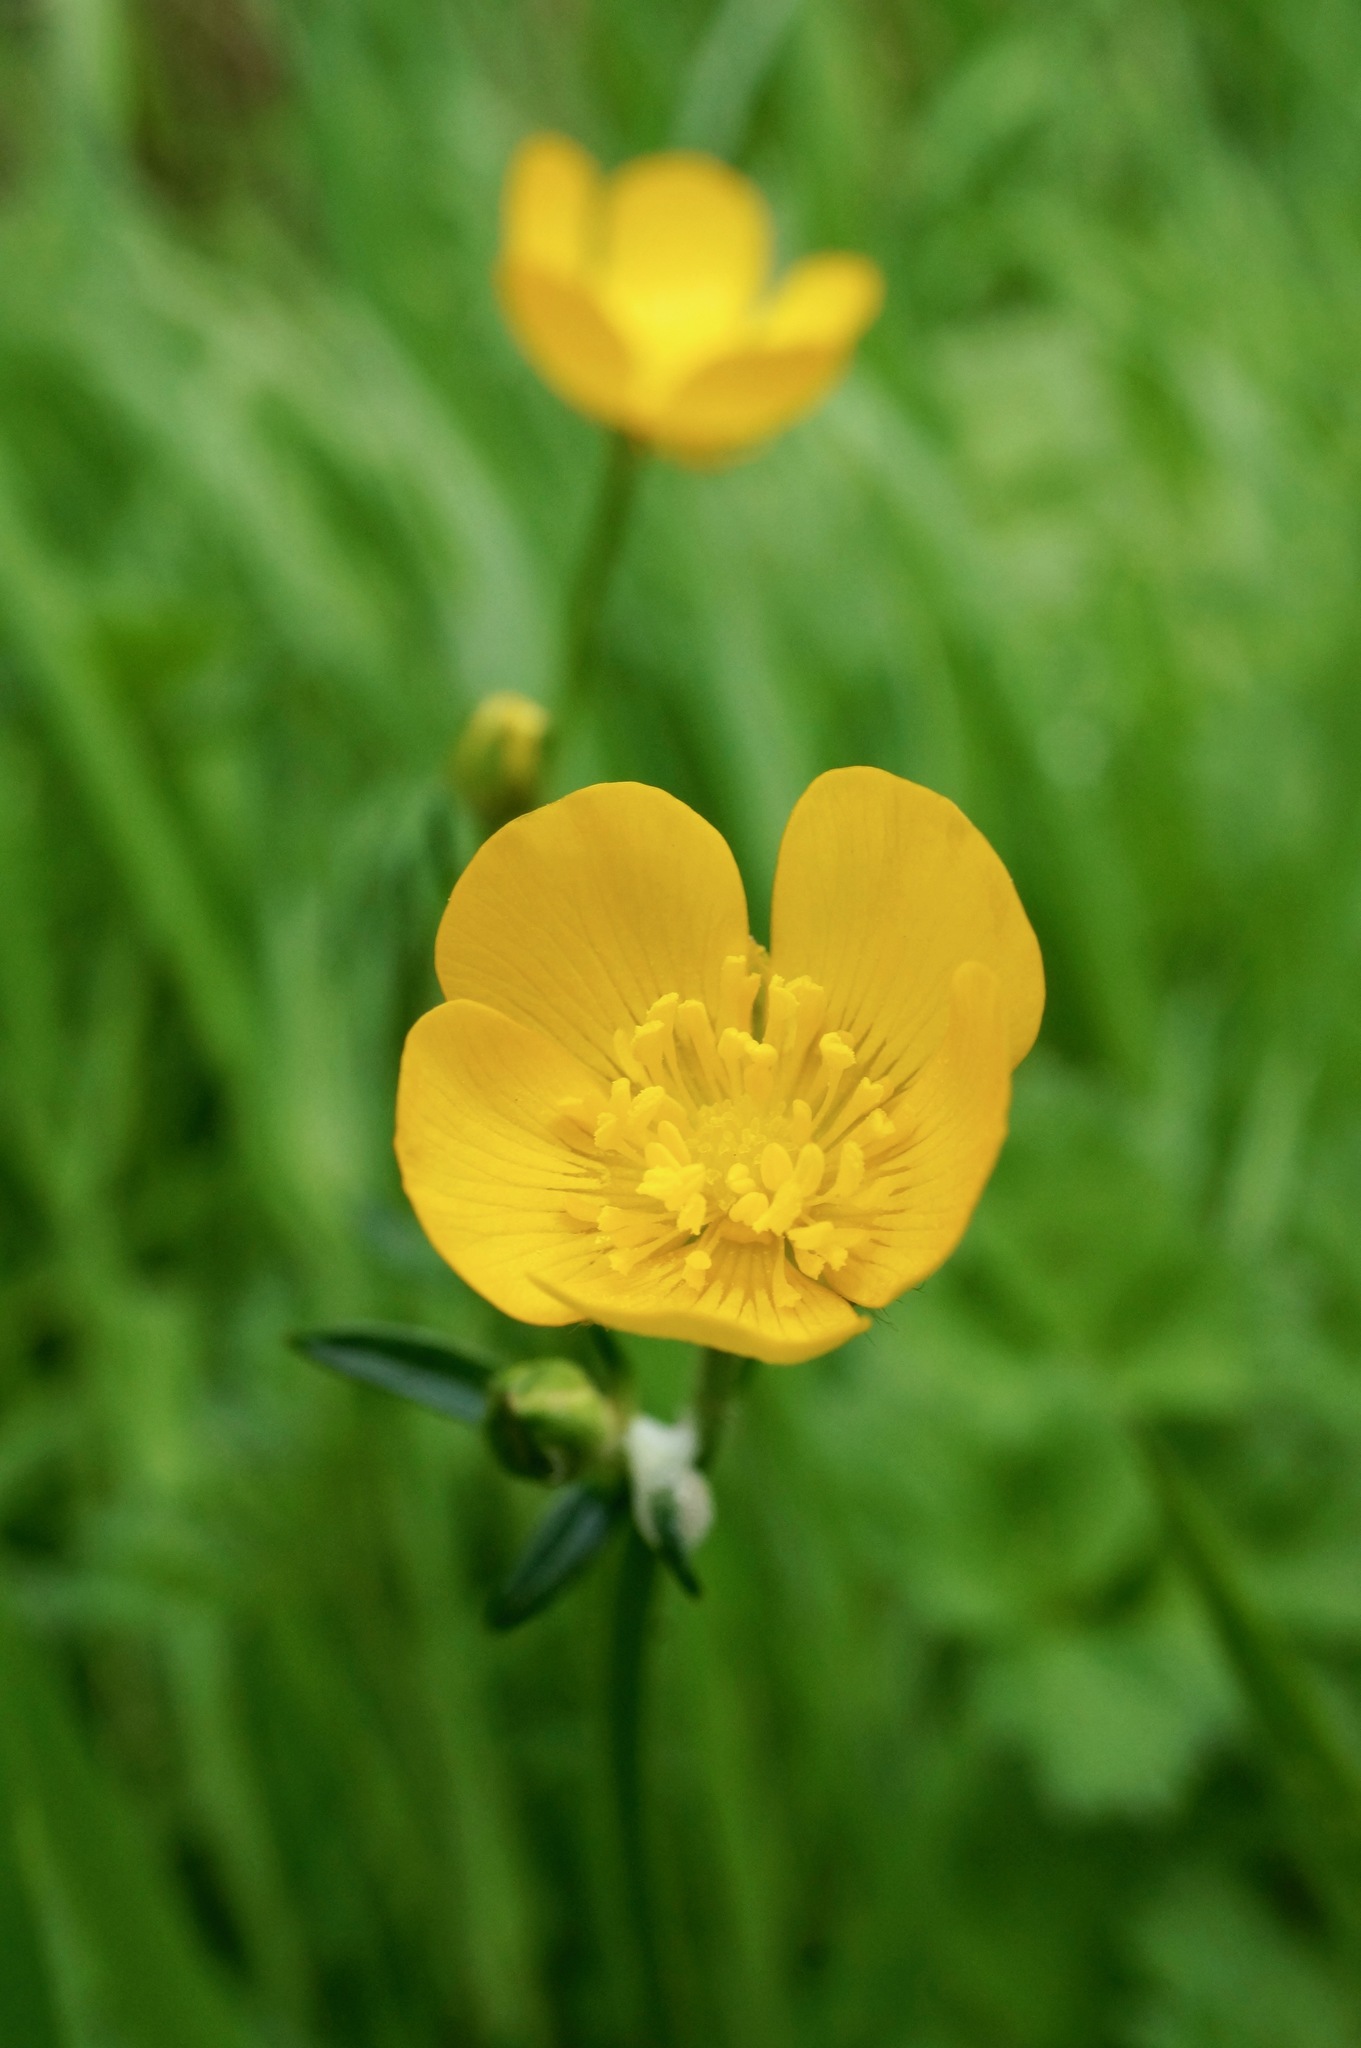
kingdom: Plantae
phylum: Tracheophyta
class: Magnoliopsida
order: Ranunculales
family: Ranunculaceae
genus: Ranunculus
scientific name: Ranunculus repens
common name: Creeping buttercup
